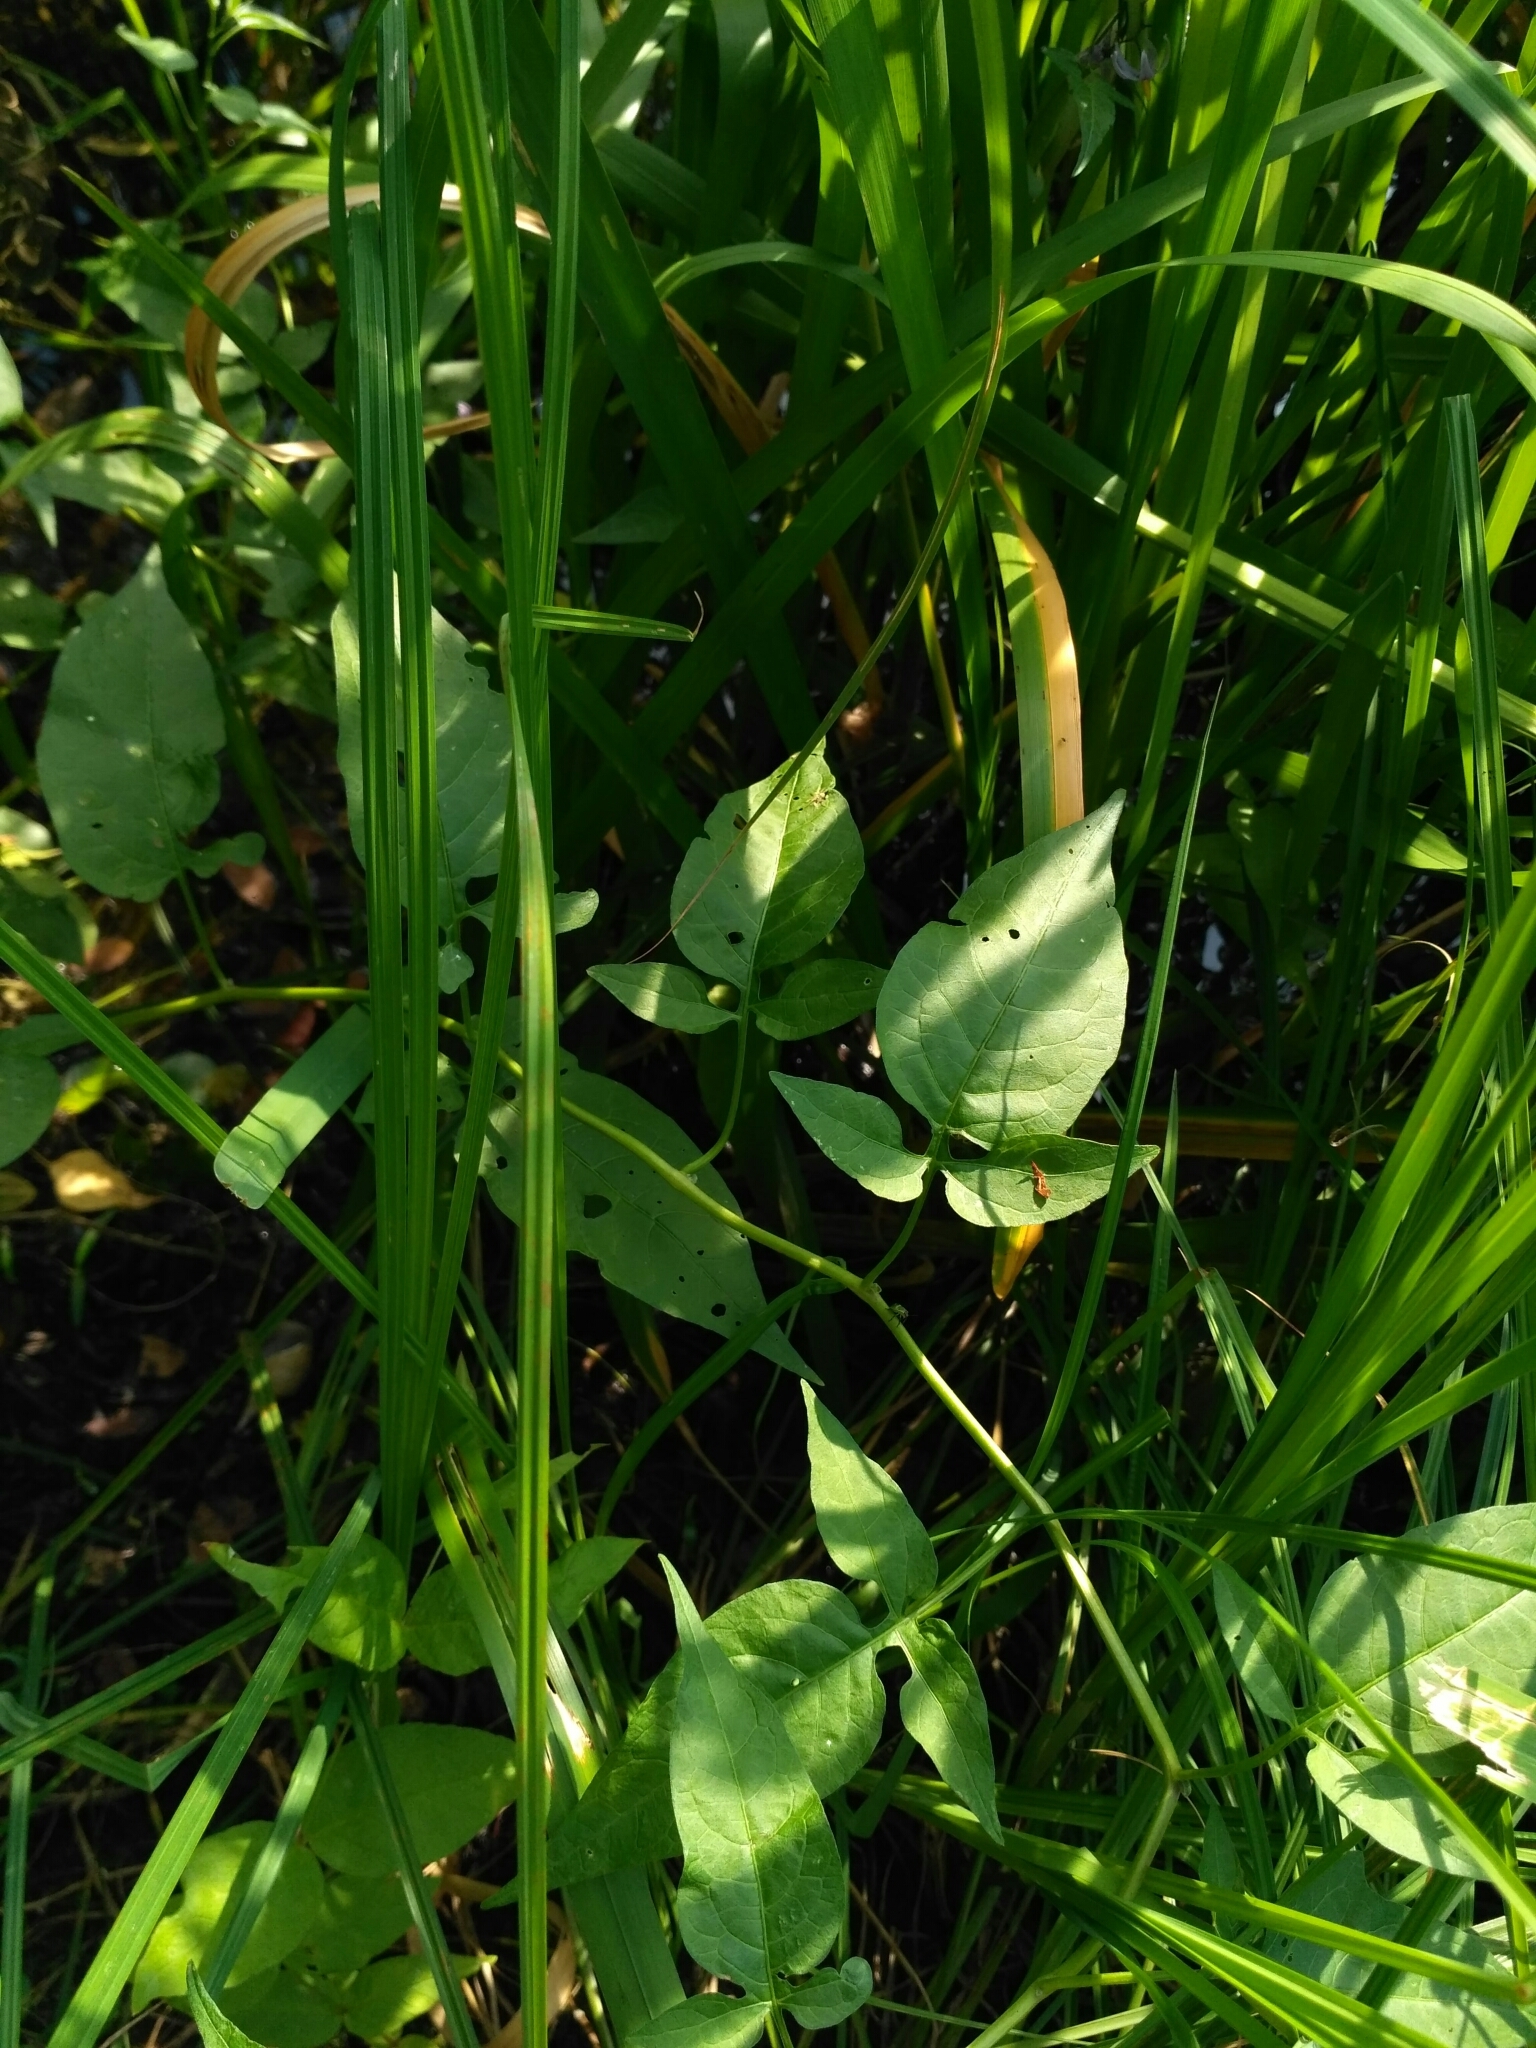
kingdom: Plantae
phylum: Tracheophyta
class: Magnoliopsida
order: Solanales
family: Solanaceae
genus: Solanum
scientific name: Solanum dulcamara
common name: Climbing nightshade
